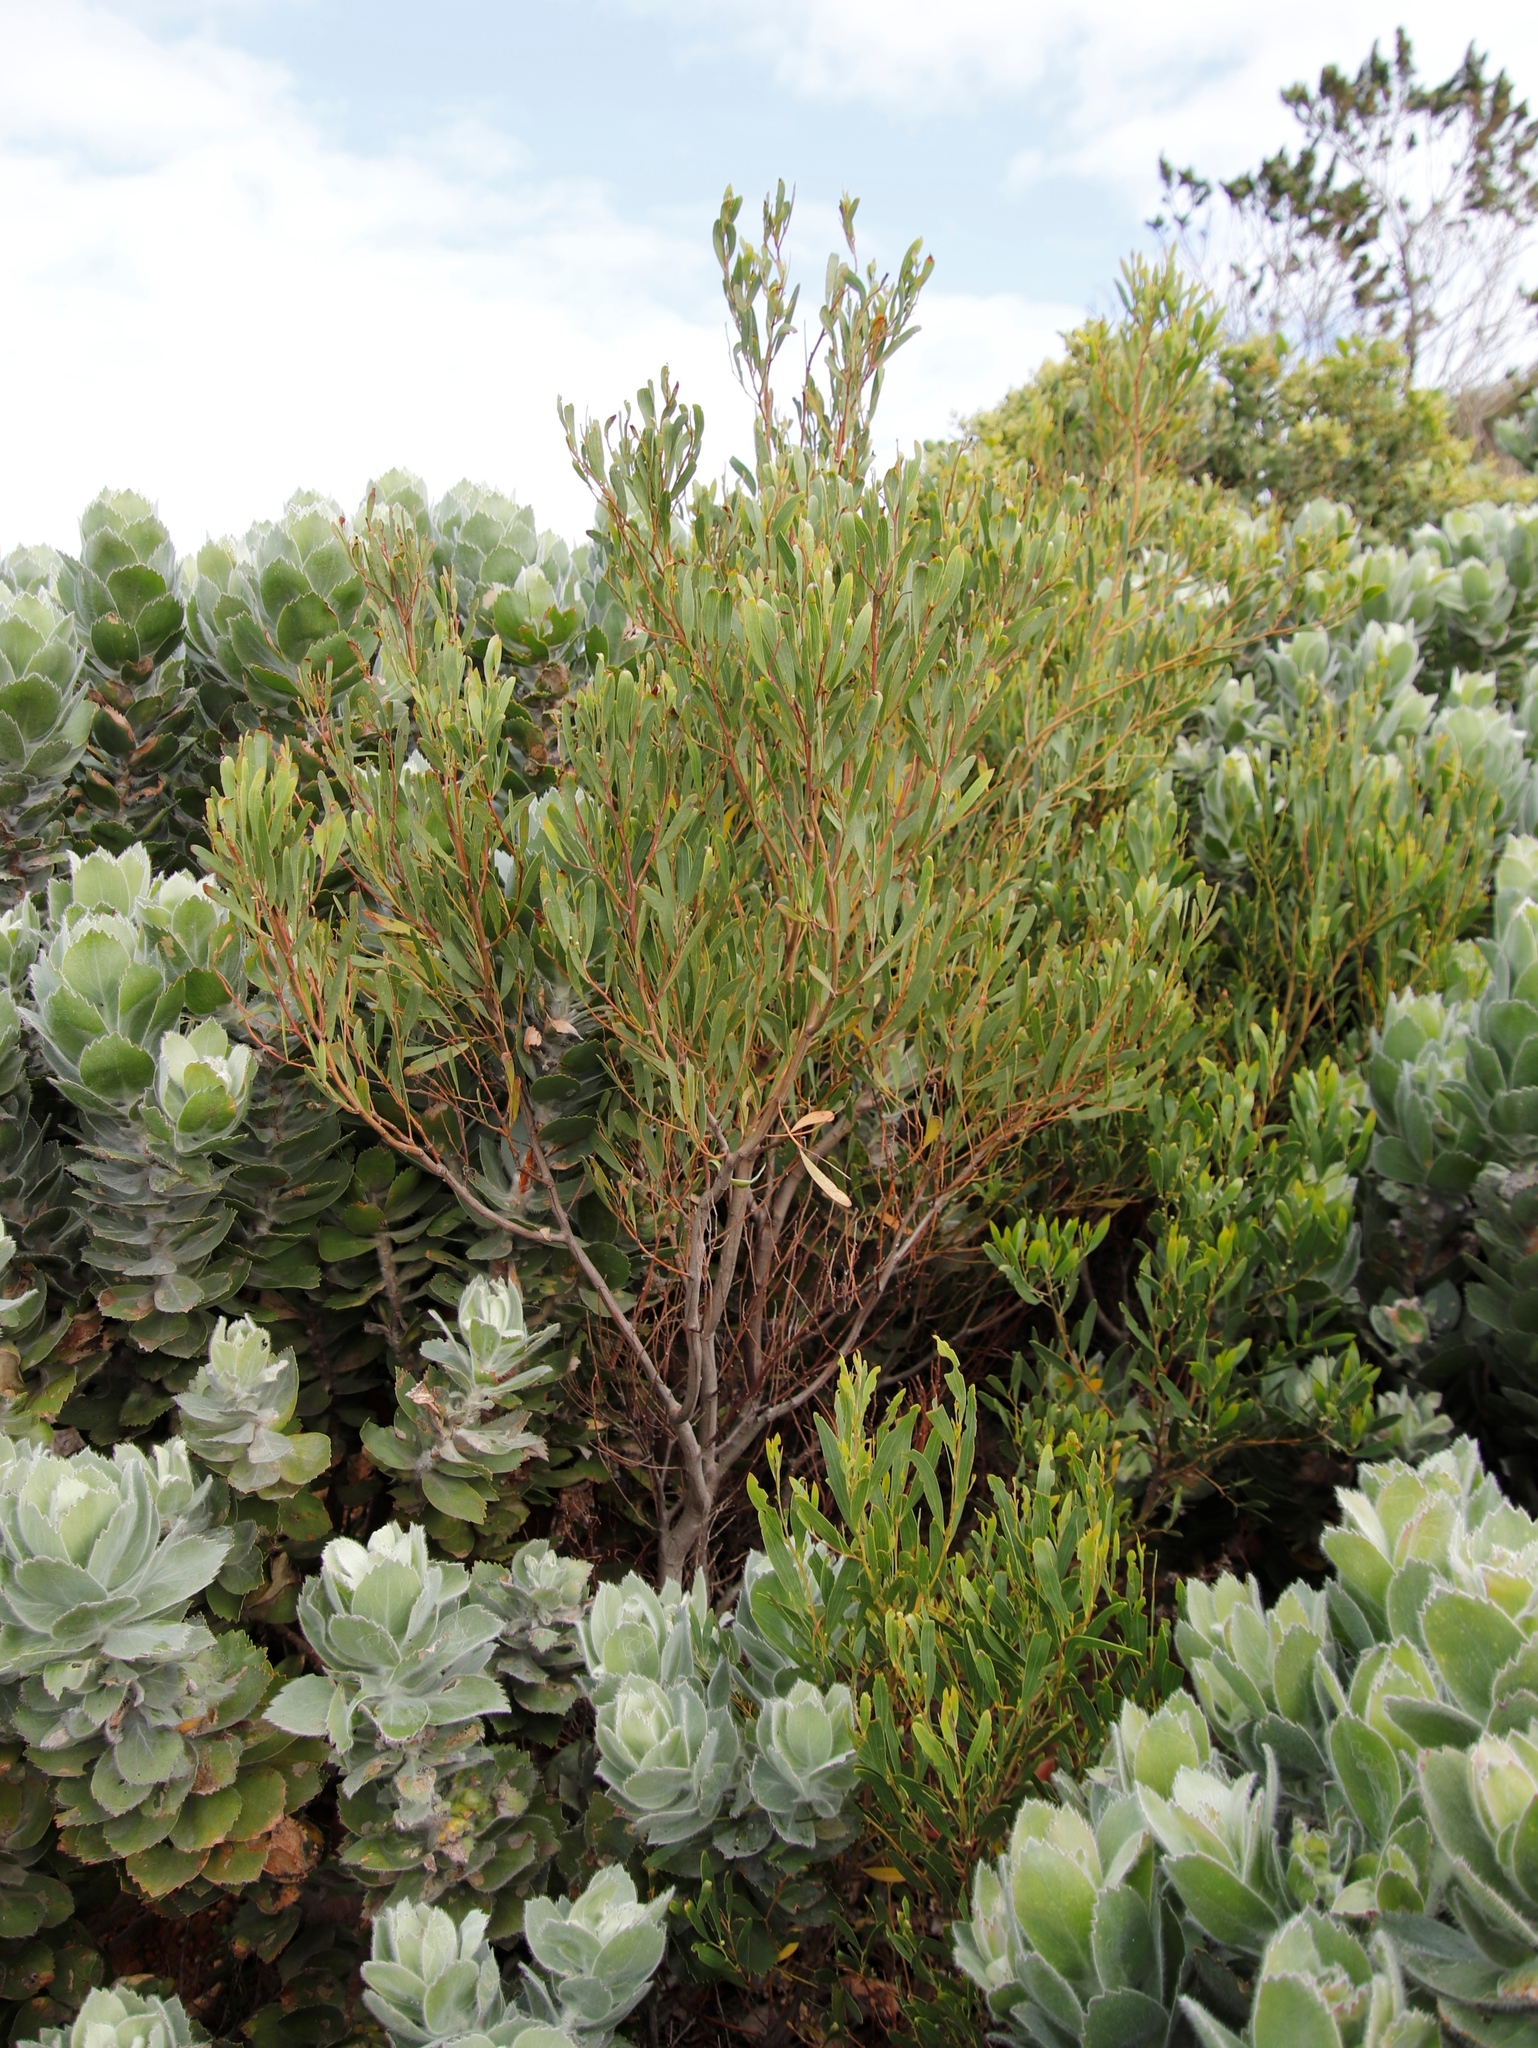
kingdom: Plantae
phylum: Tracheophyta
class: Magnoliopsida
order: Fabales
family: Fabaceae
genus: Acacia
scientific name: Acacia cyclops
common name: Coastal wattle
